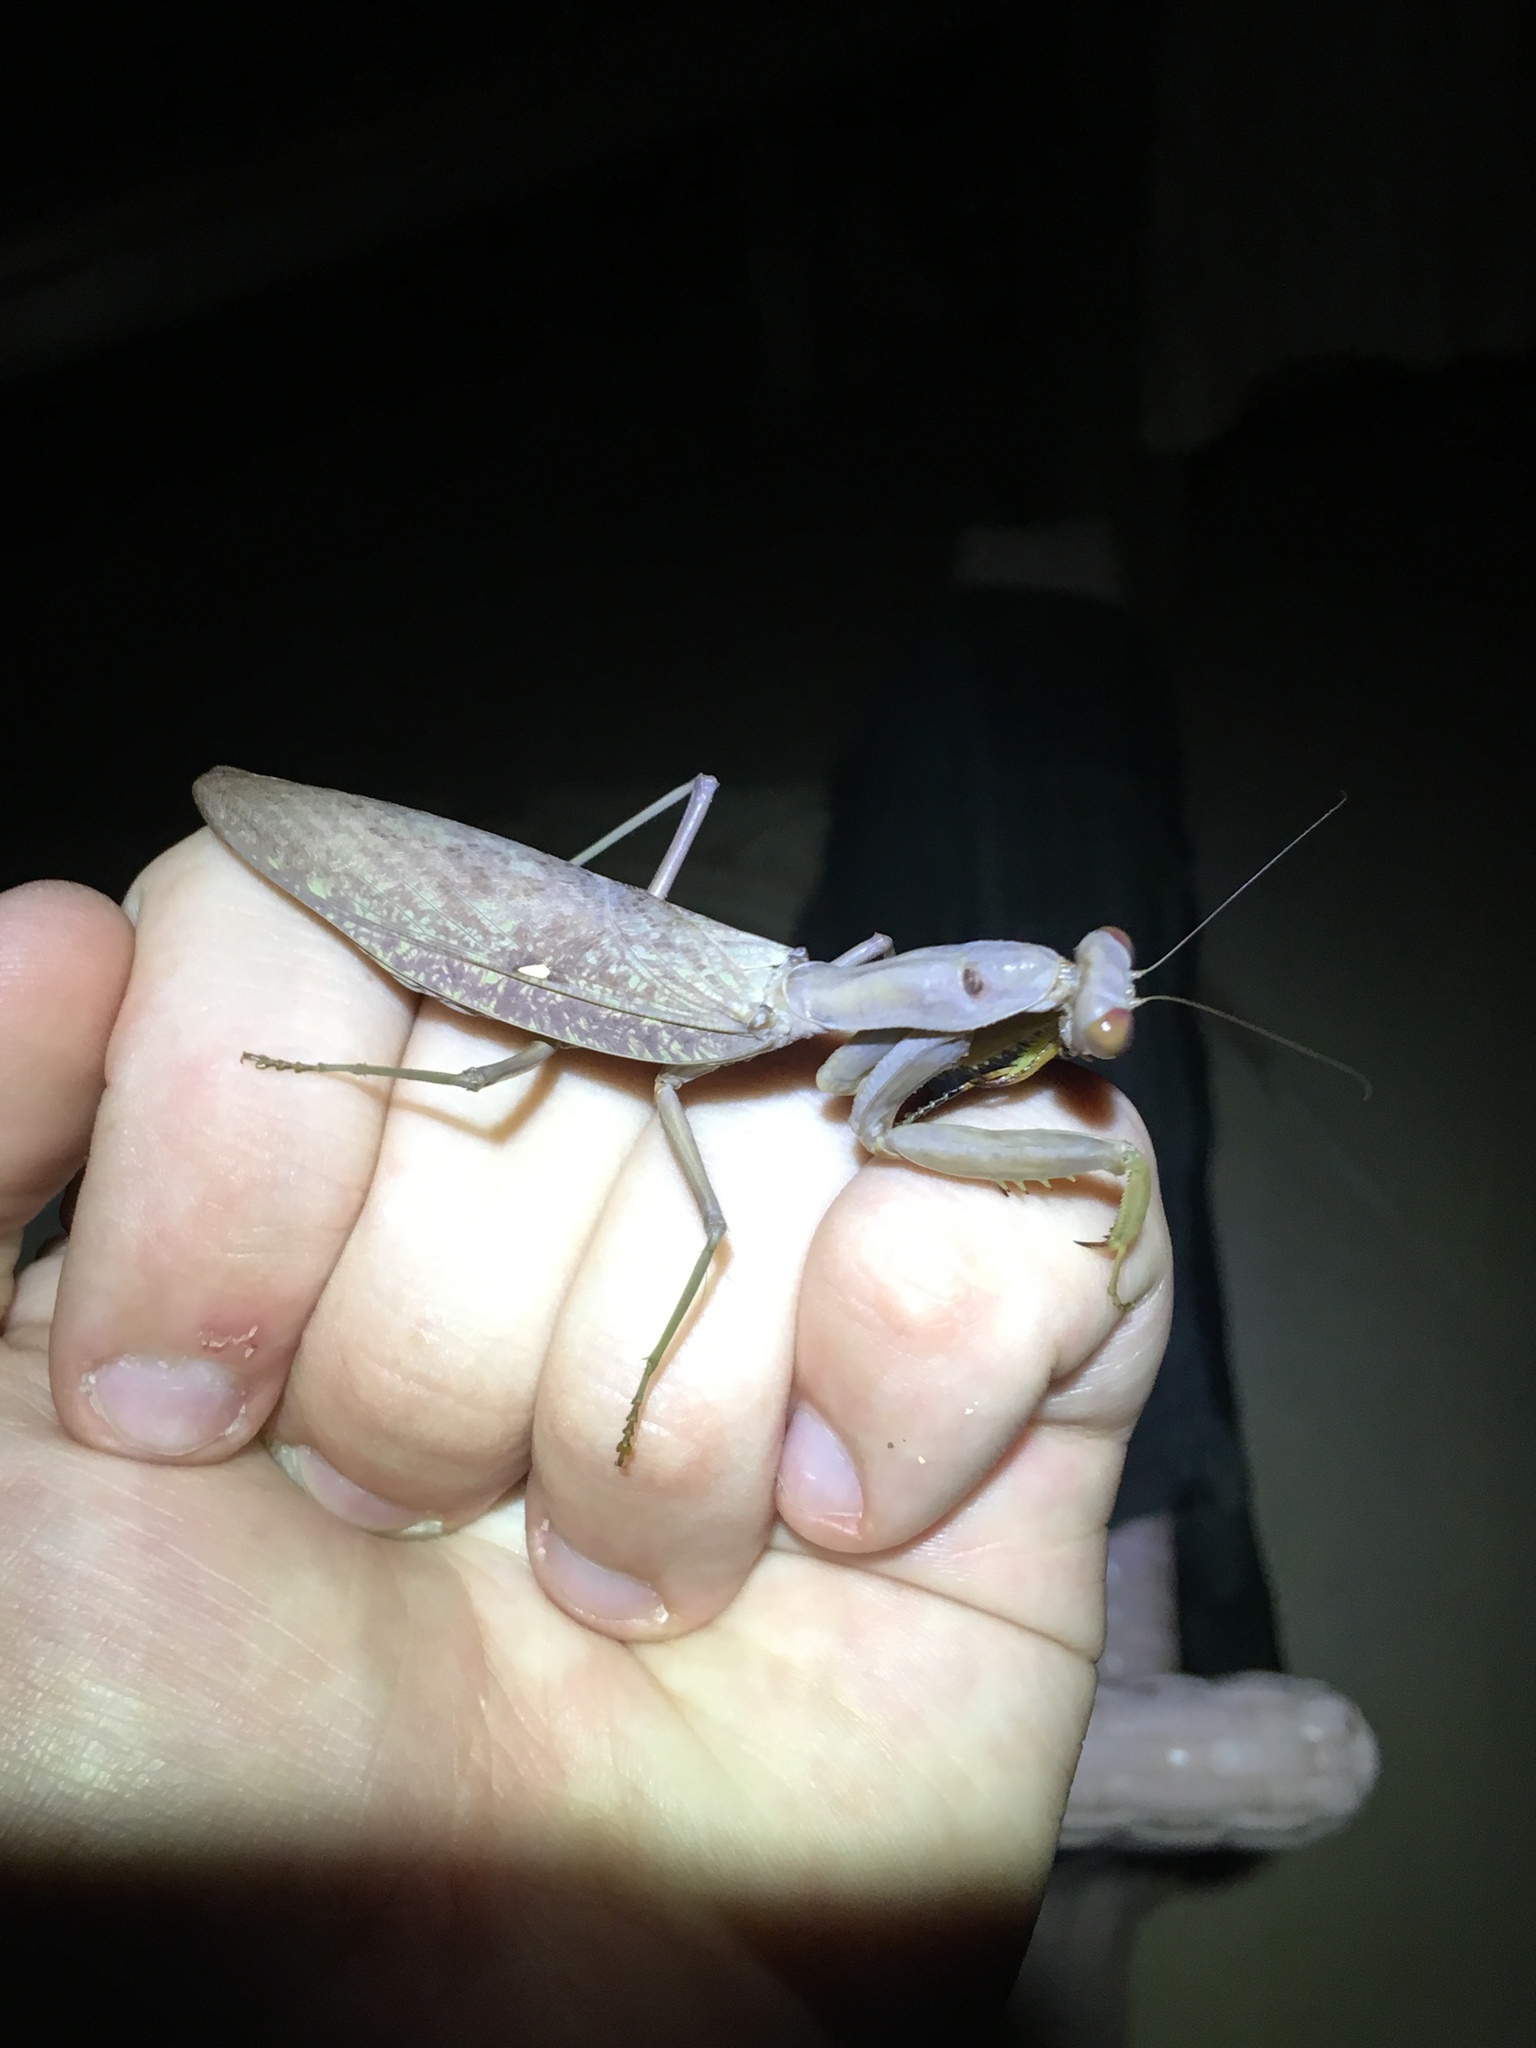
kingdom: Animalia
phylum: Arthropoda
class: Insecta
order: Mantodea
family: Mantidae
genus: Hierodula
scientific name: Hierodula patellifera
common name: Asian mantis
